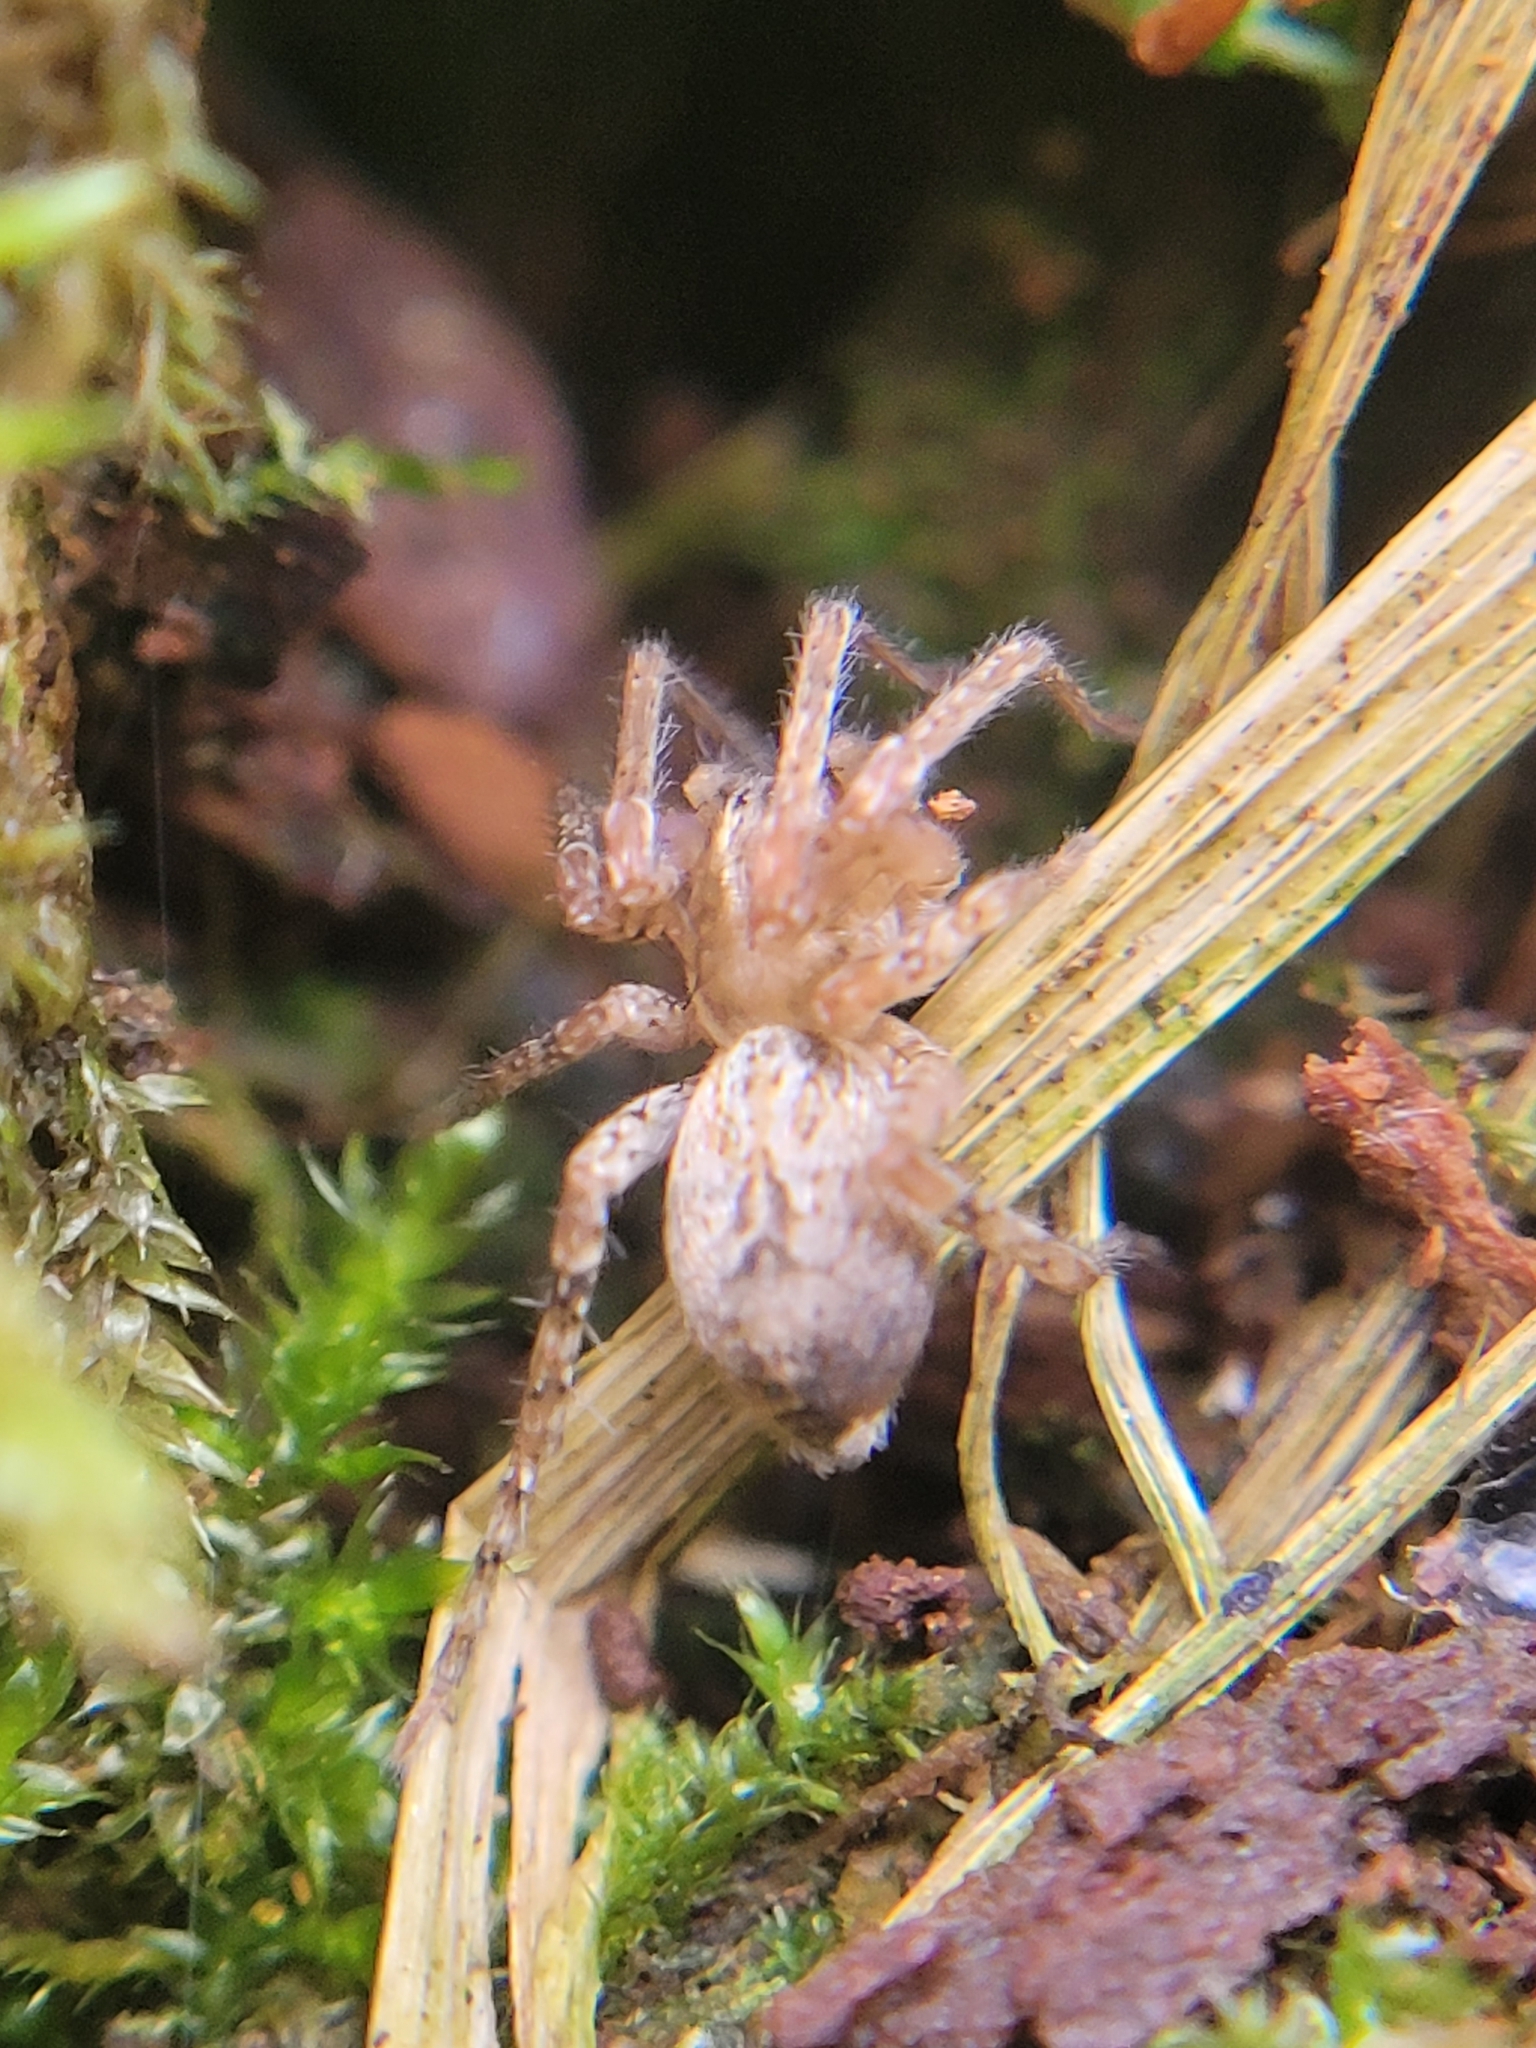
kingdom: Animalia
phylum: Arthropoda
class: Arachnida
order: Araneae
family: Anyphaenidae
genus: Anyphaena
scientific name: Anyphaena accentuata
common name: Buzzing spider
